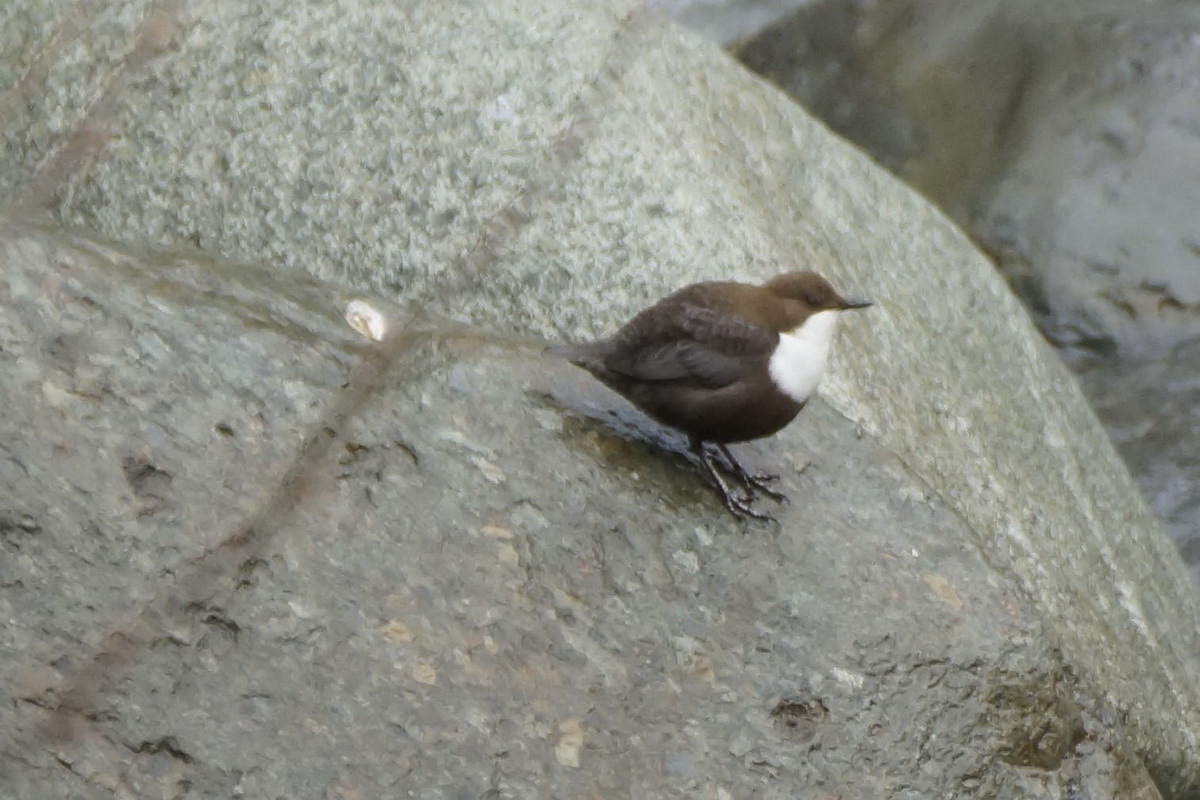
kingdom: Animalia
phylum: Chordata
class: Aves
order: Passeriformes
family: Cinclidae
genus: Cinclus
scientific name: Cinclus cinclus
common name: White-throated dipper
